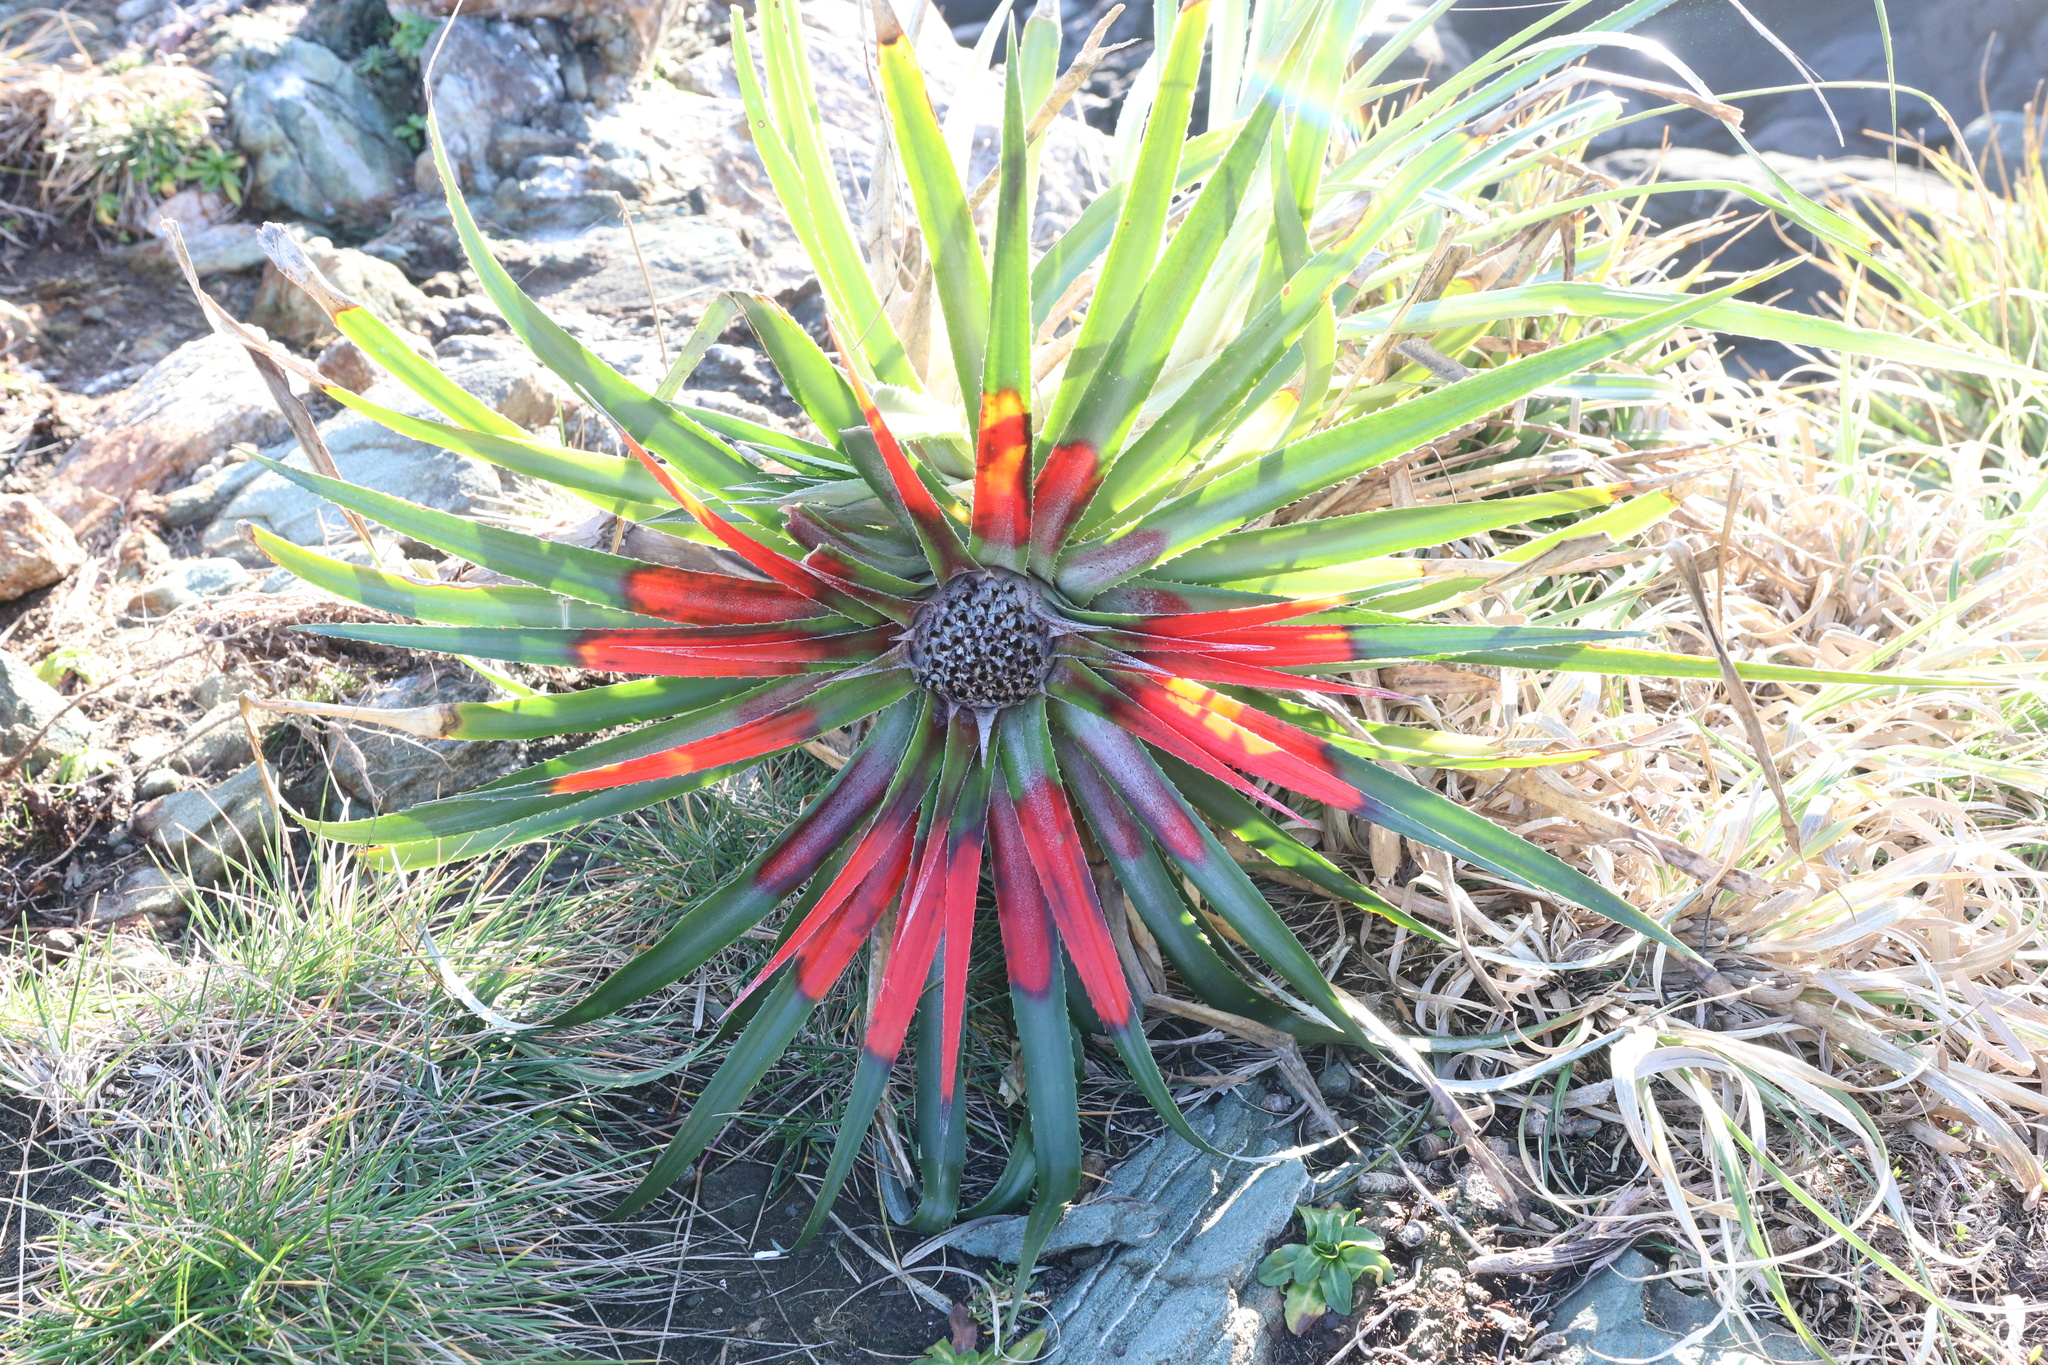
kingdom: Plantae
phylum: Tracheophyta
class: Liliopsida
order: Poales
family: Bromeliaceae
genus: Fascicularia
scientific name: Fascicularia bicolor
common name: Rhodostachys
